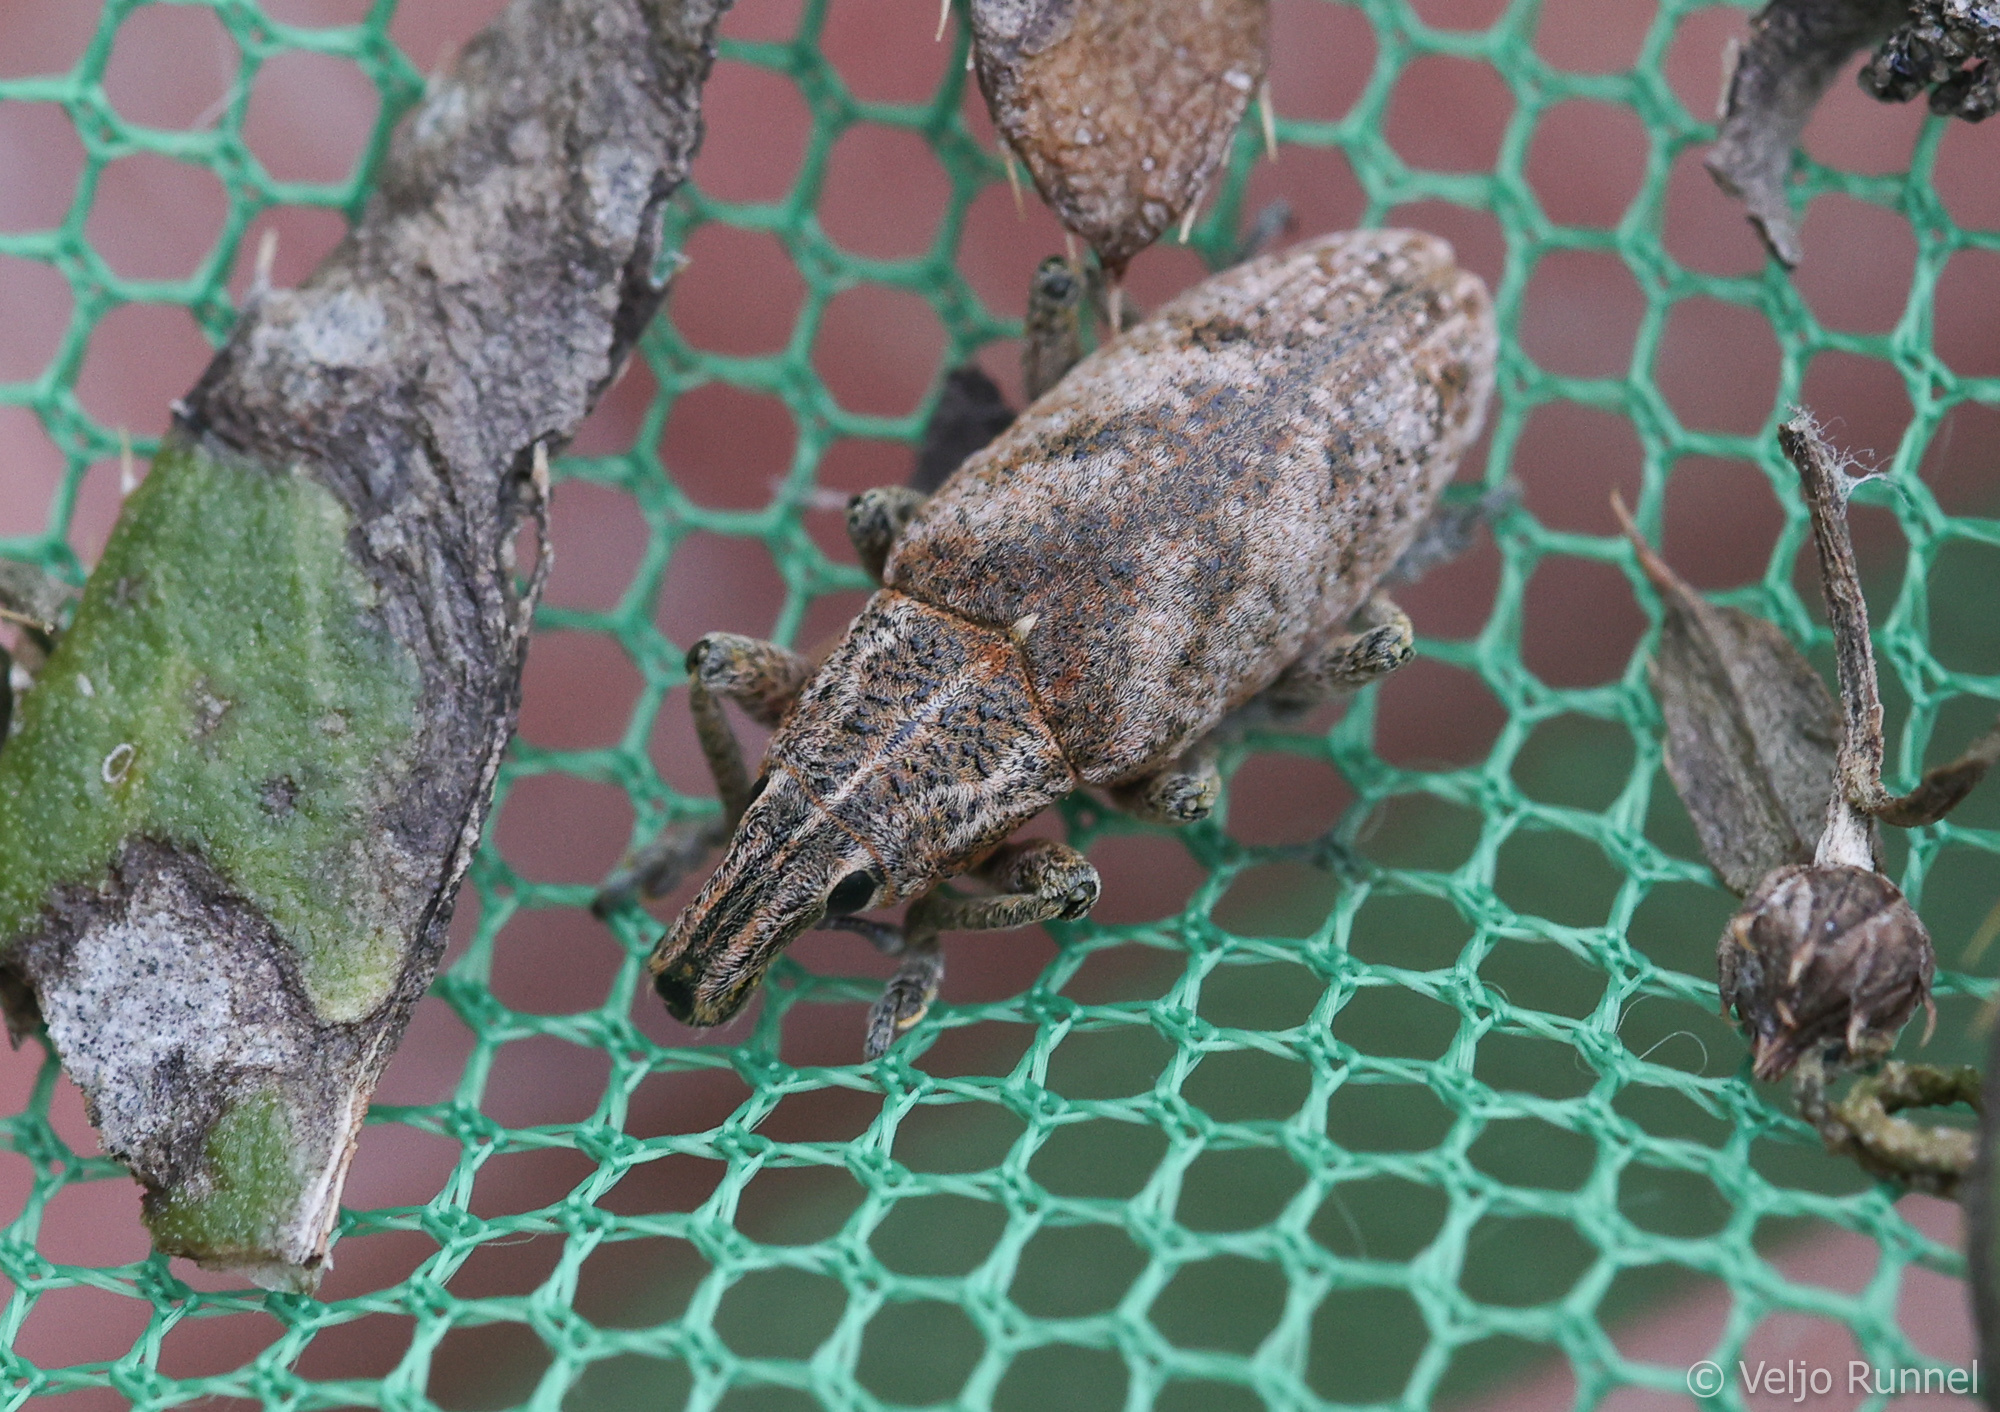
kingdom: Animalia
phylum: Arthropoda
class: Insecta
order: Coleoptera
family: Curculionidae
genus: Cleonis
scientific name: Cleonis pigra
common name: Large thistle weevil
